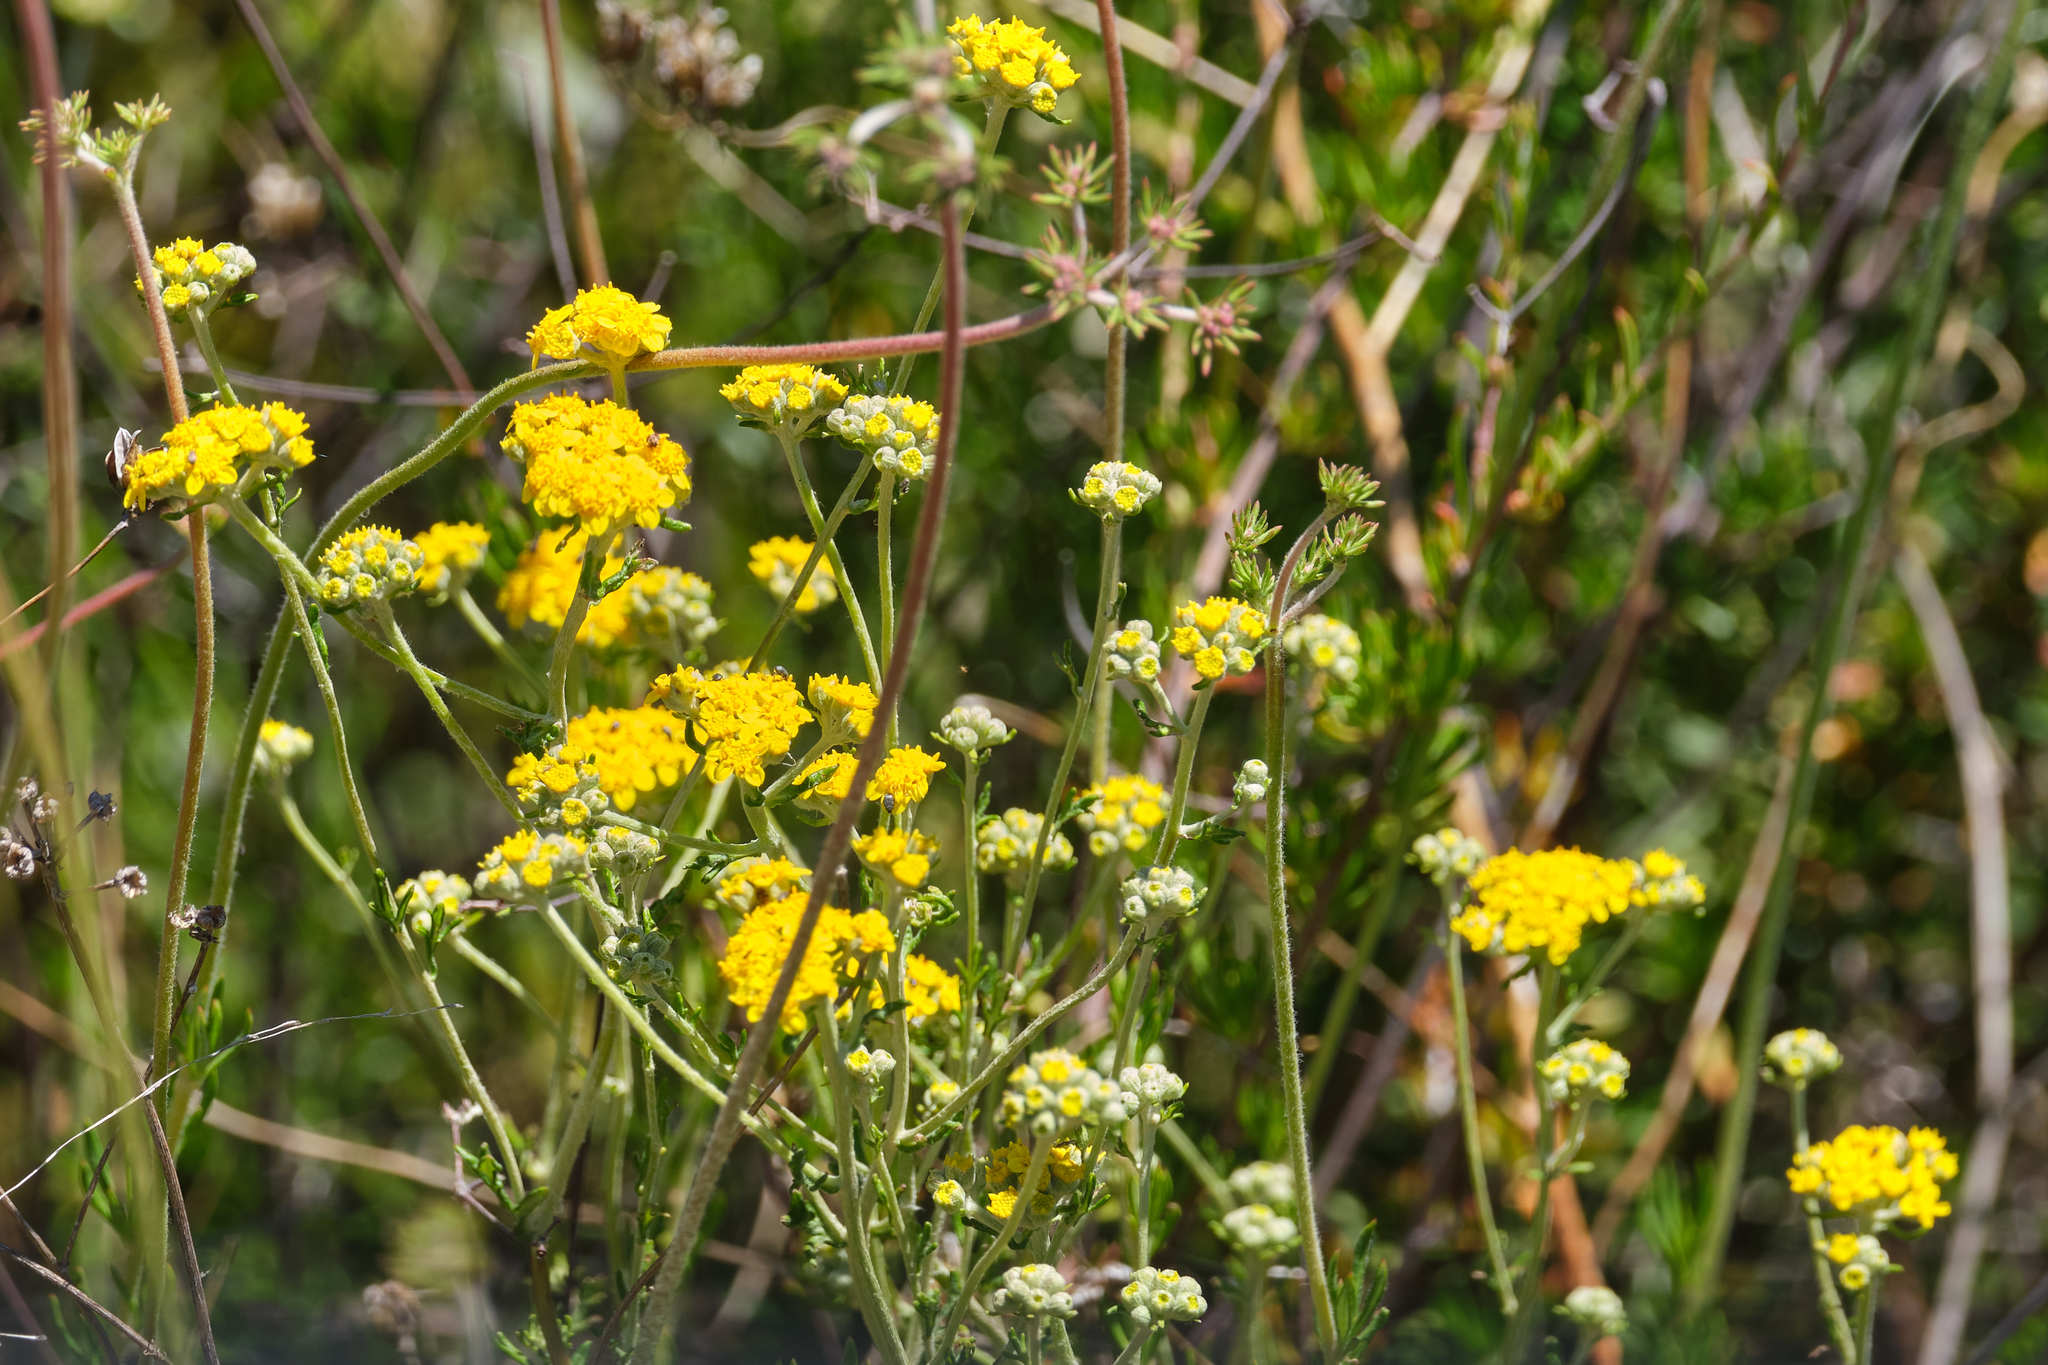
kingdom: Plantae
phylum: Tracheophyta
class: Magnoliopsida
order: Asterales
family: Asteraceae
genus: Eriophyllum
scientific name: Eriophyllum confertiflorum
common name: Golden-yarrow
